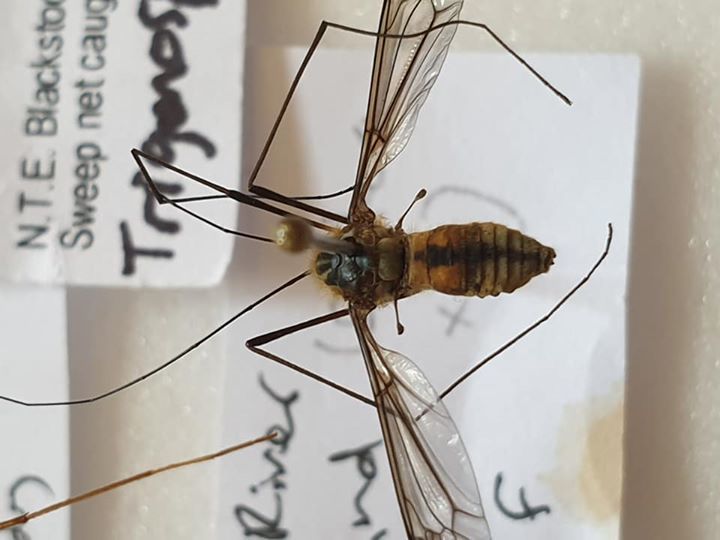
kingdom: Animalia
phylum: Arthropoda
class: Insecta
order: Diptera
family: Tipulidae
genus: Leptotarsus
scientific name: Leptotarsus vulpinus
